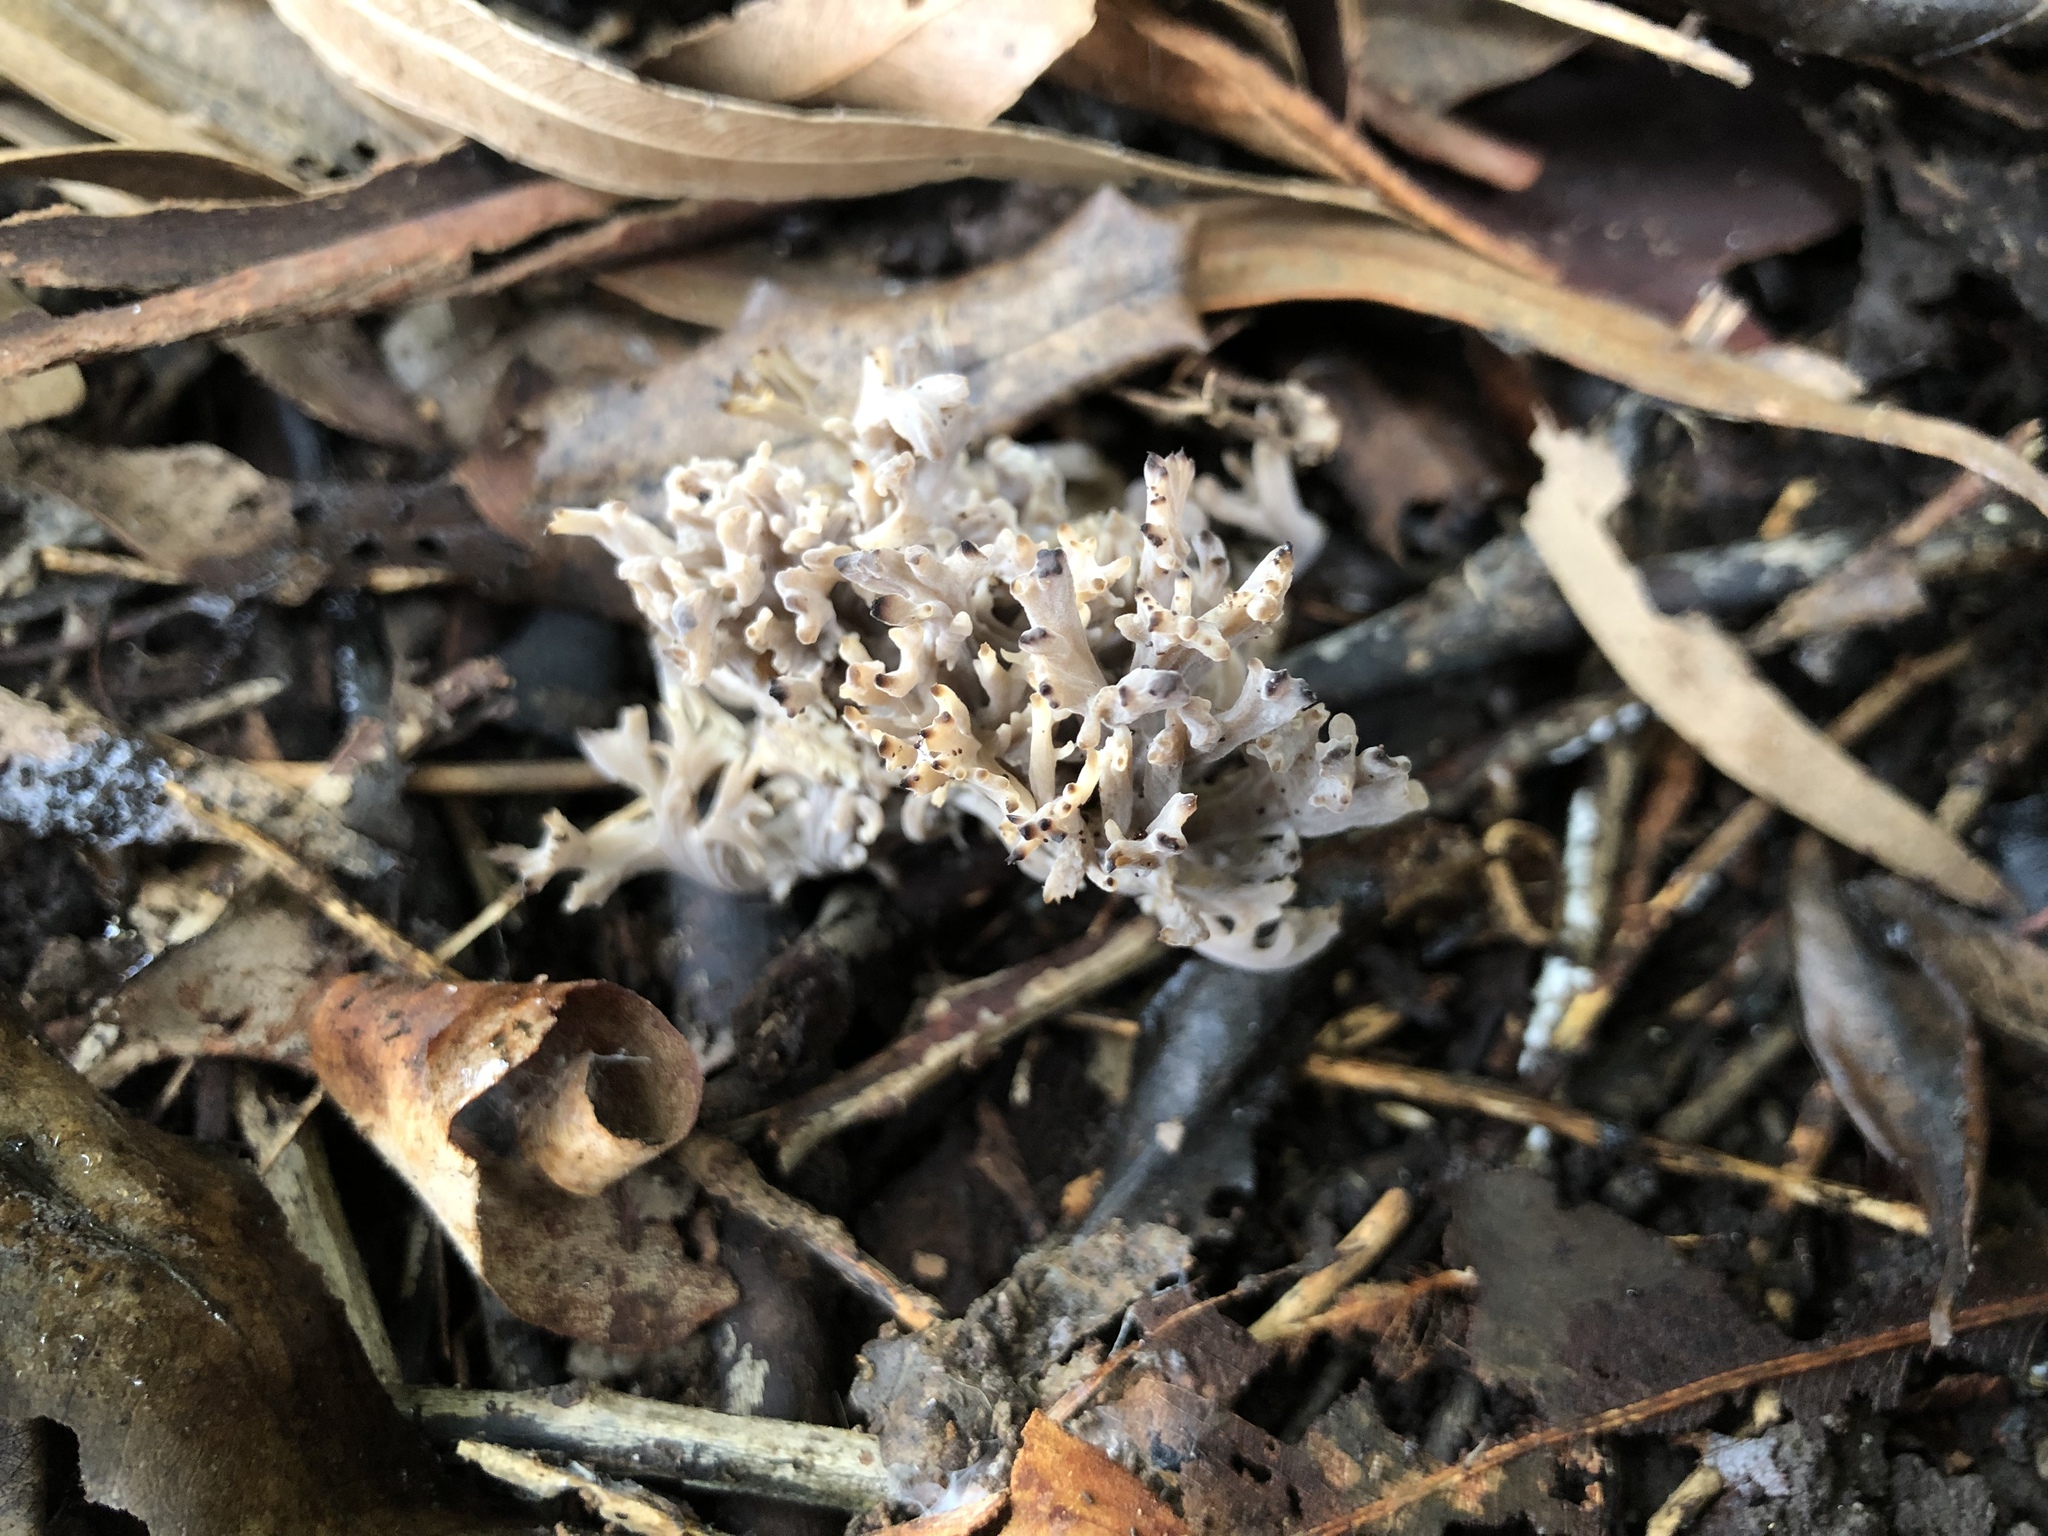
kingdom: Fungi
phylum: Basidiomycota
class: Agaricomycetes
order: Cantharellales
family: Hydnaceae
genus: Clavulina
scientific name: Clavulina vinaceocervina
